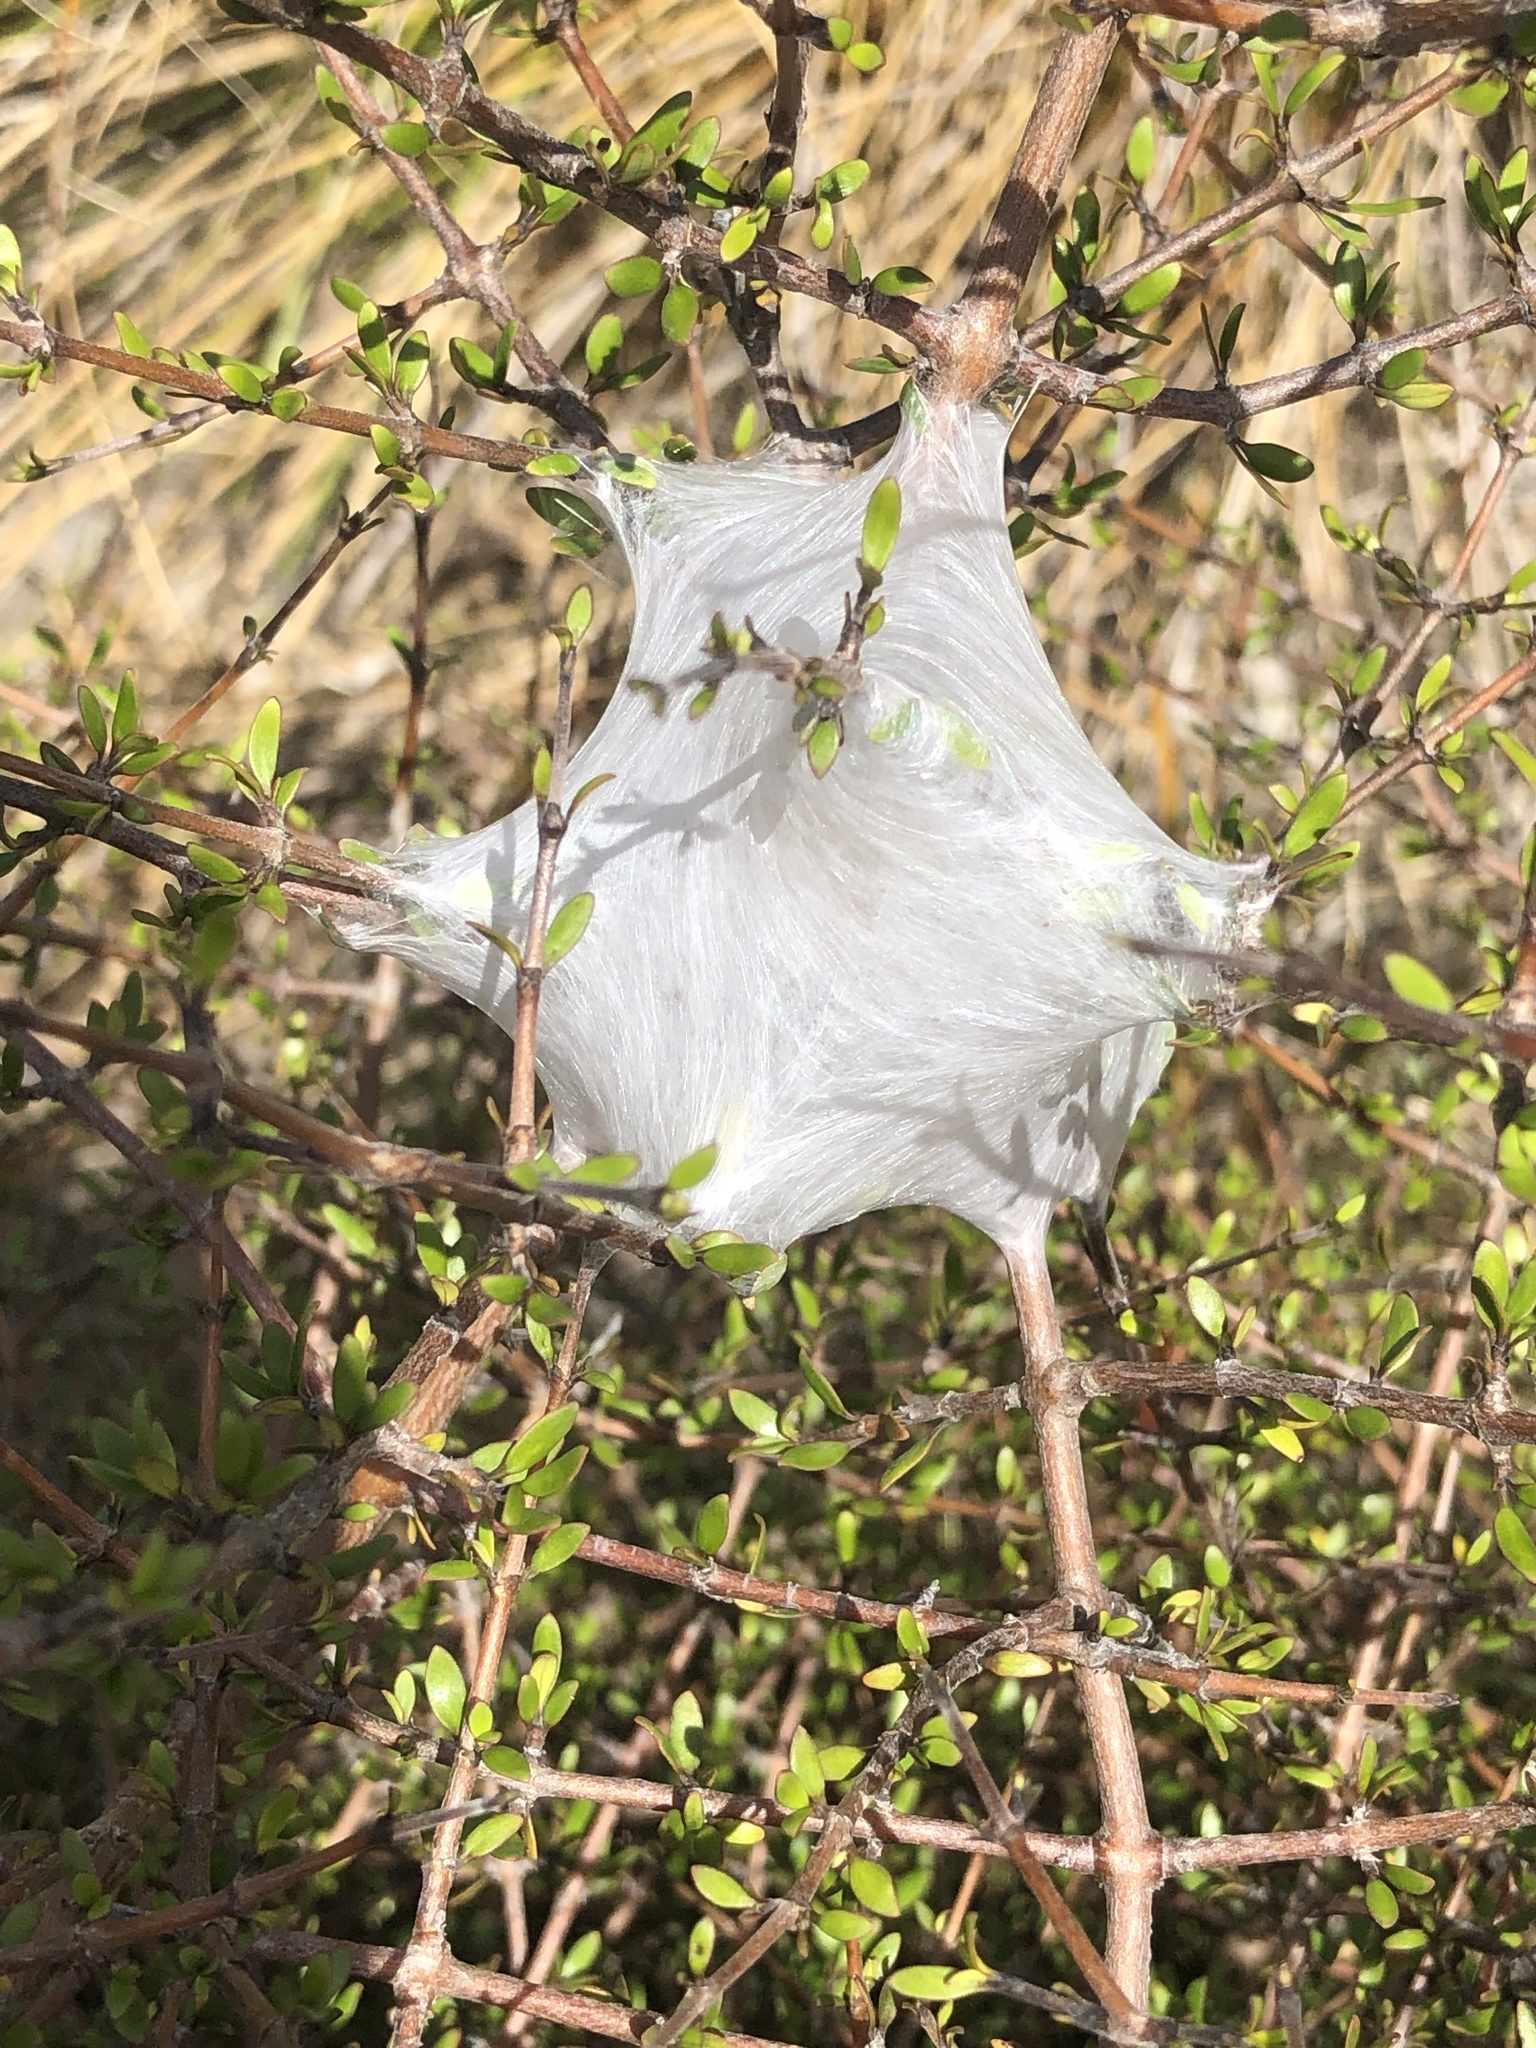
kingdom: Animalia
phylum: Arthropoda
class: Arachnida
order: Araneae
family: Pisauridae
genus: Dolomedes
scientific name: Dolomedes minor
